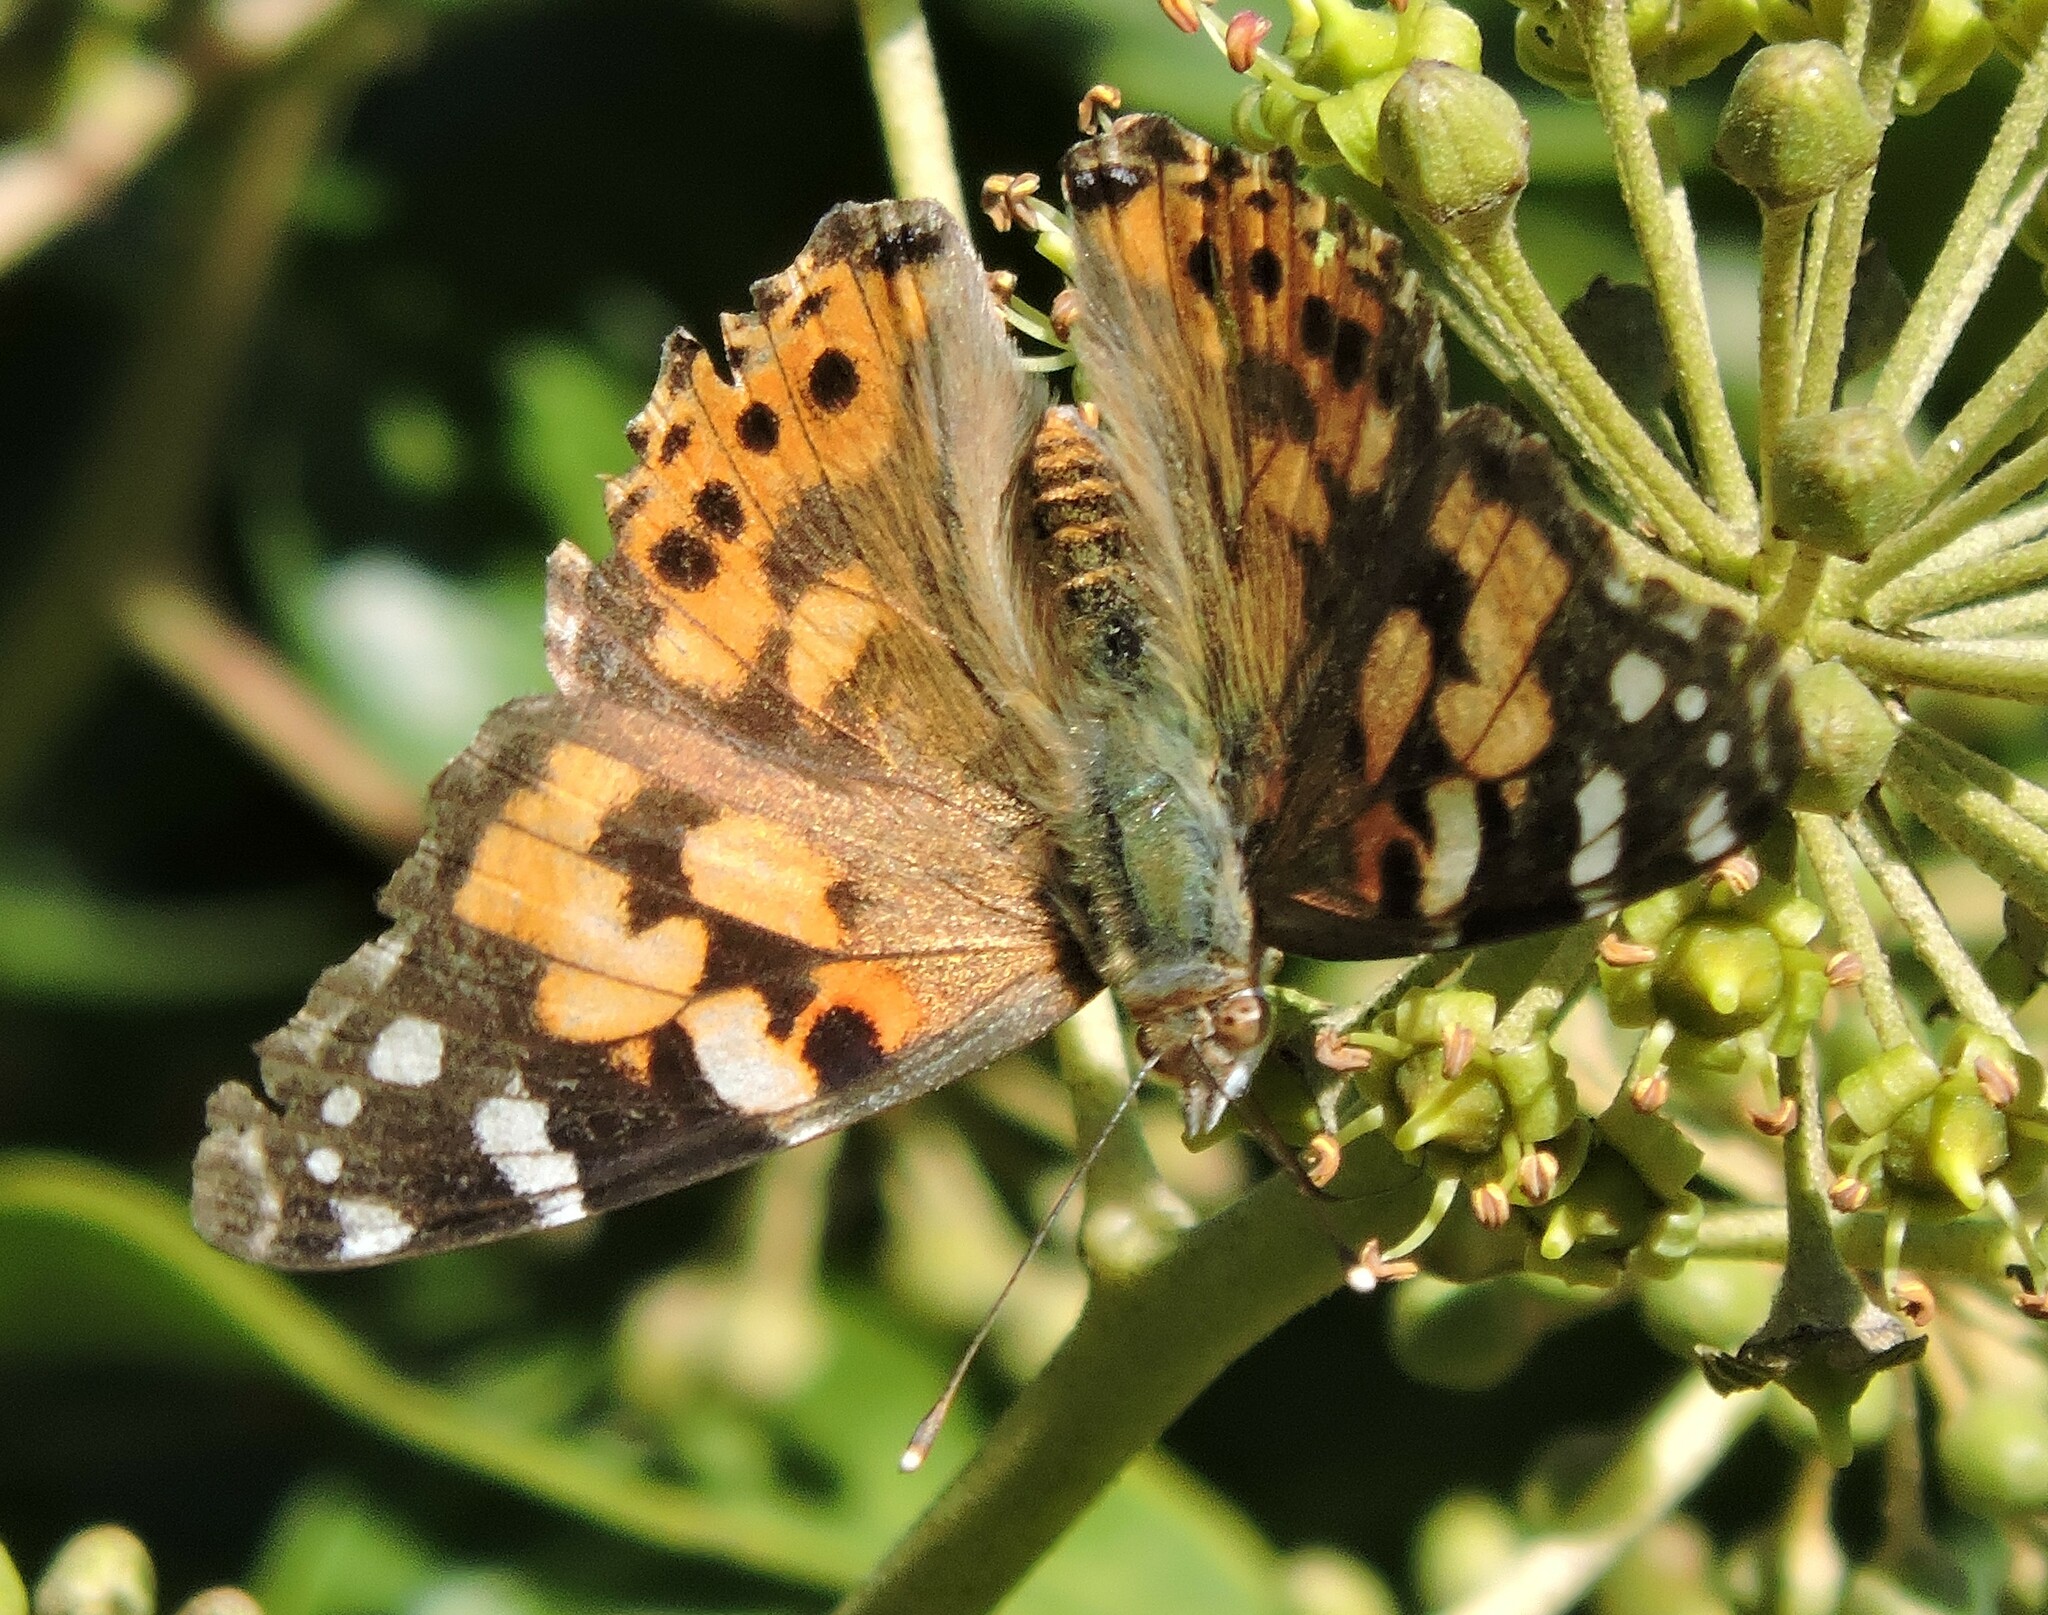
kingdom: Animalia
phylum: Arthropoda
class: Insecta
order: Lepidoptera
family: Nymphalidae
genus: Vanessa
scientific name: Vanessa cardui
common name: Painted lady
